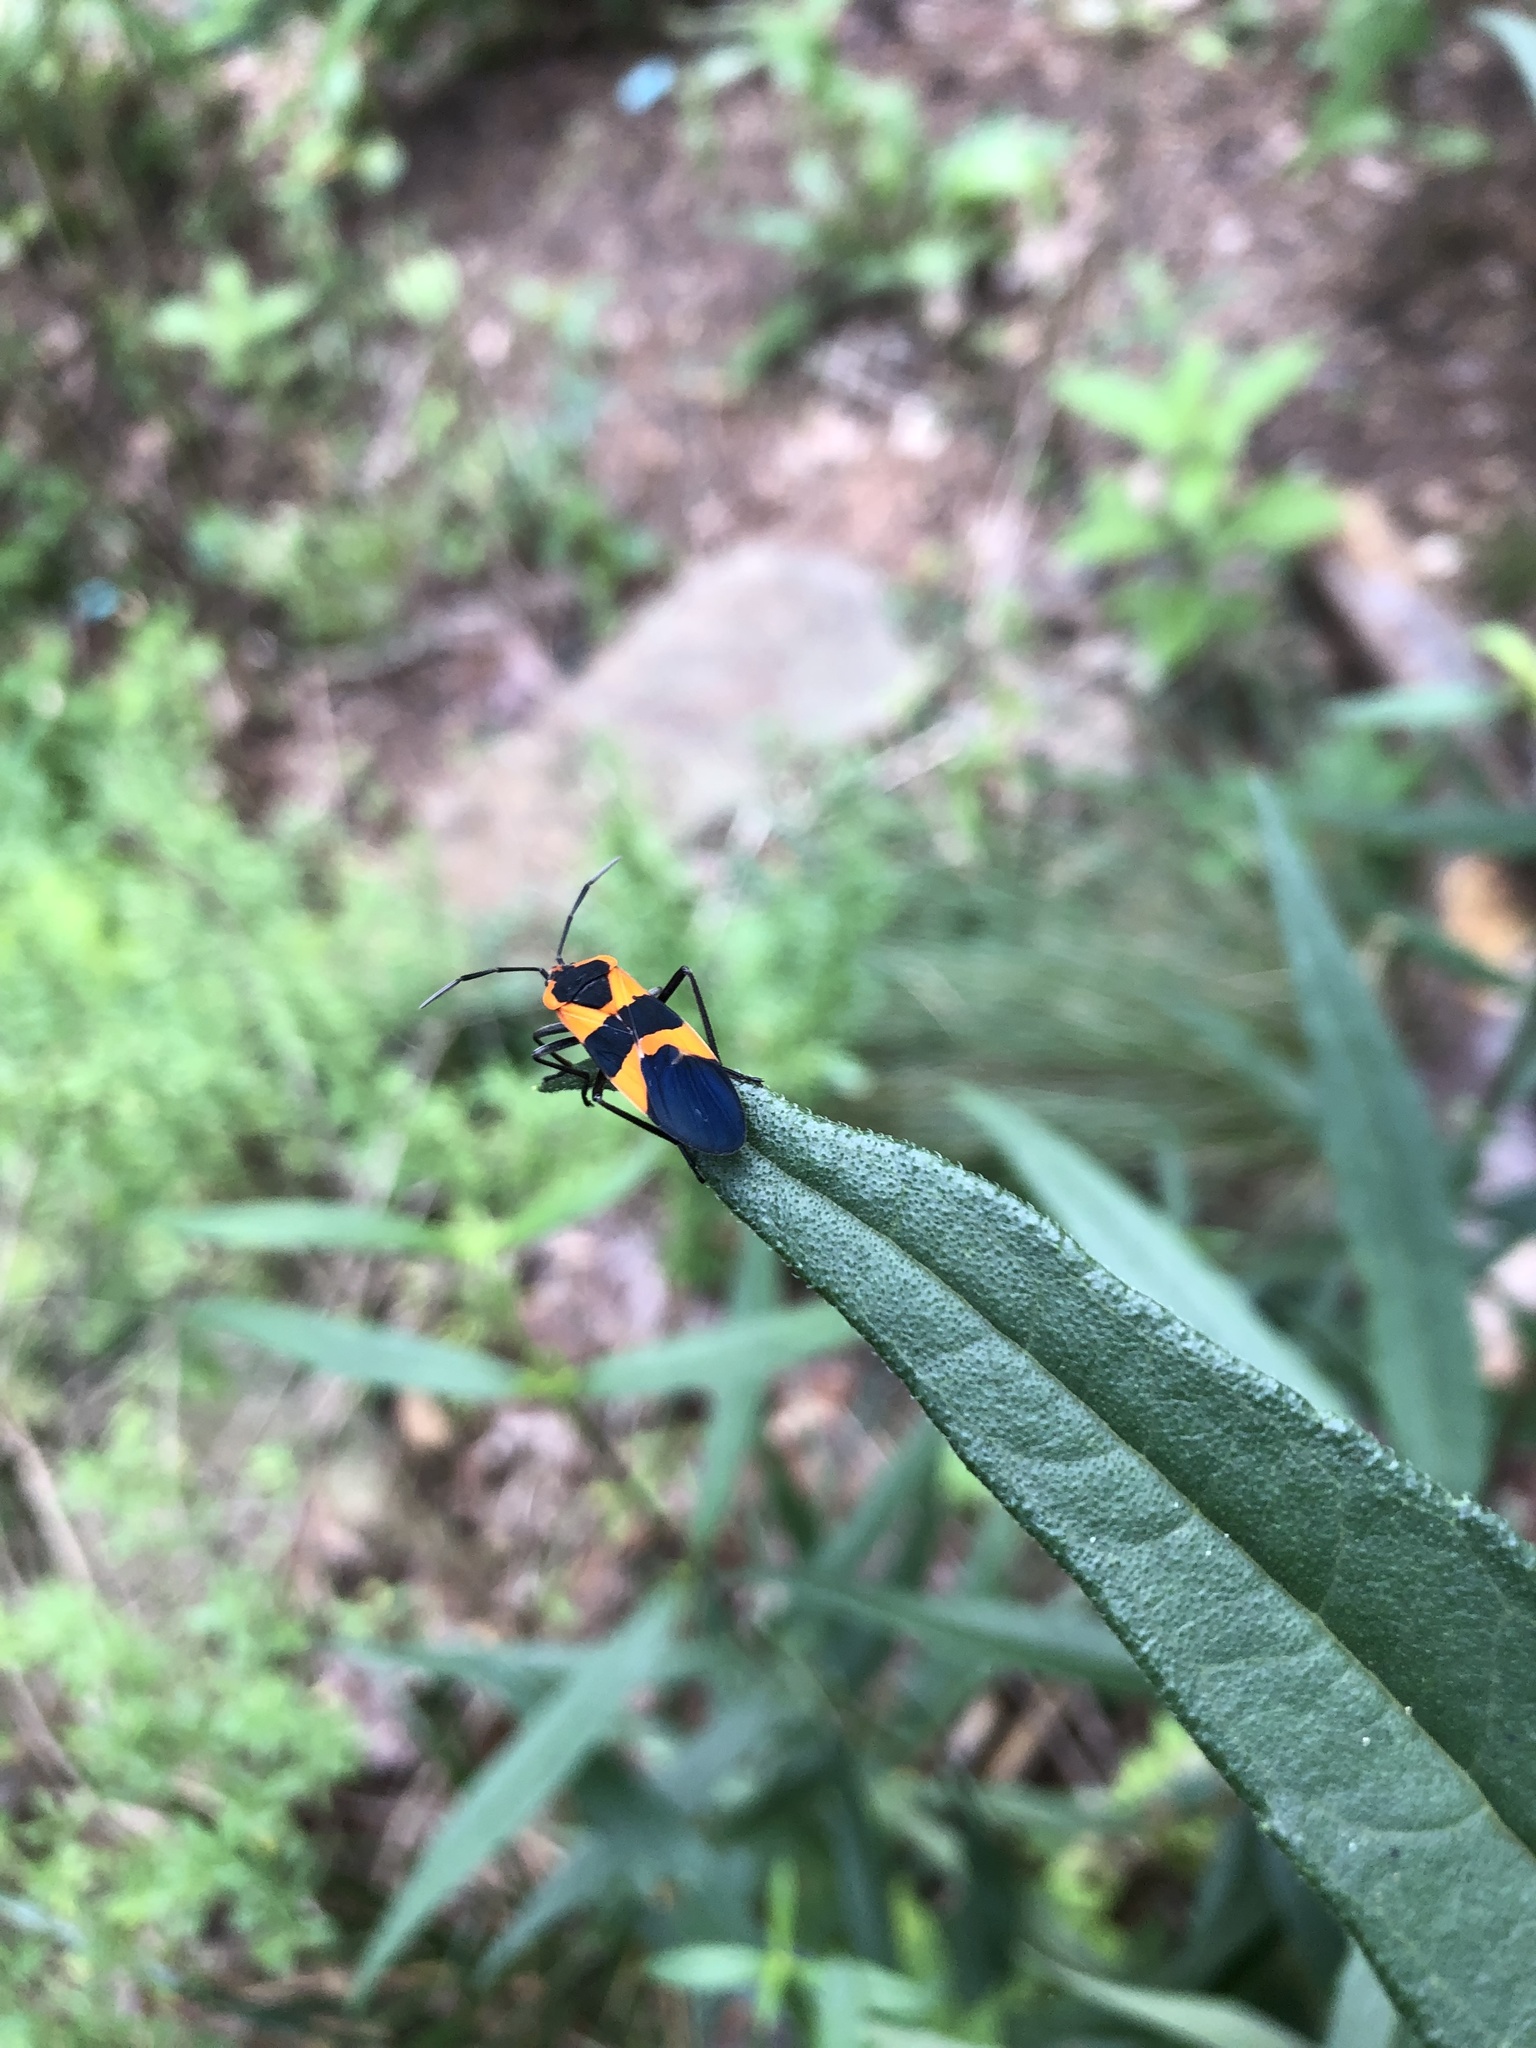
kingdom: Animalia
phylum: Arthropoda
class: Insecta
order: Hemiptera
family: Lygaeidae
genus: Oncopeltus
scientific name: Oncopeltus fasciatus
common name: Large milkweed bug
